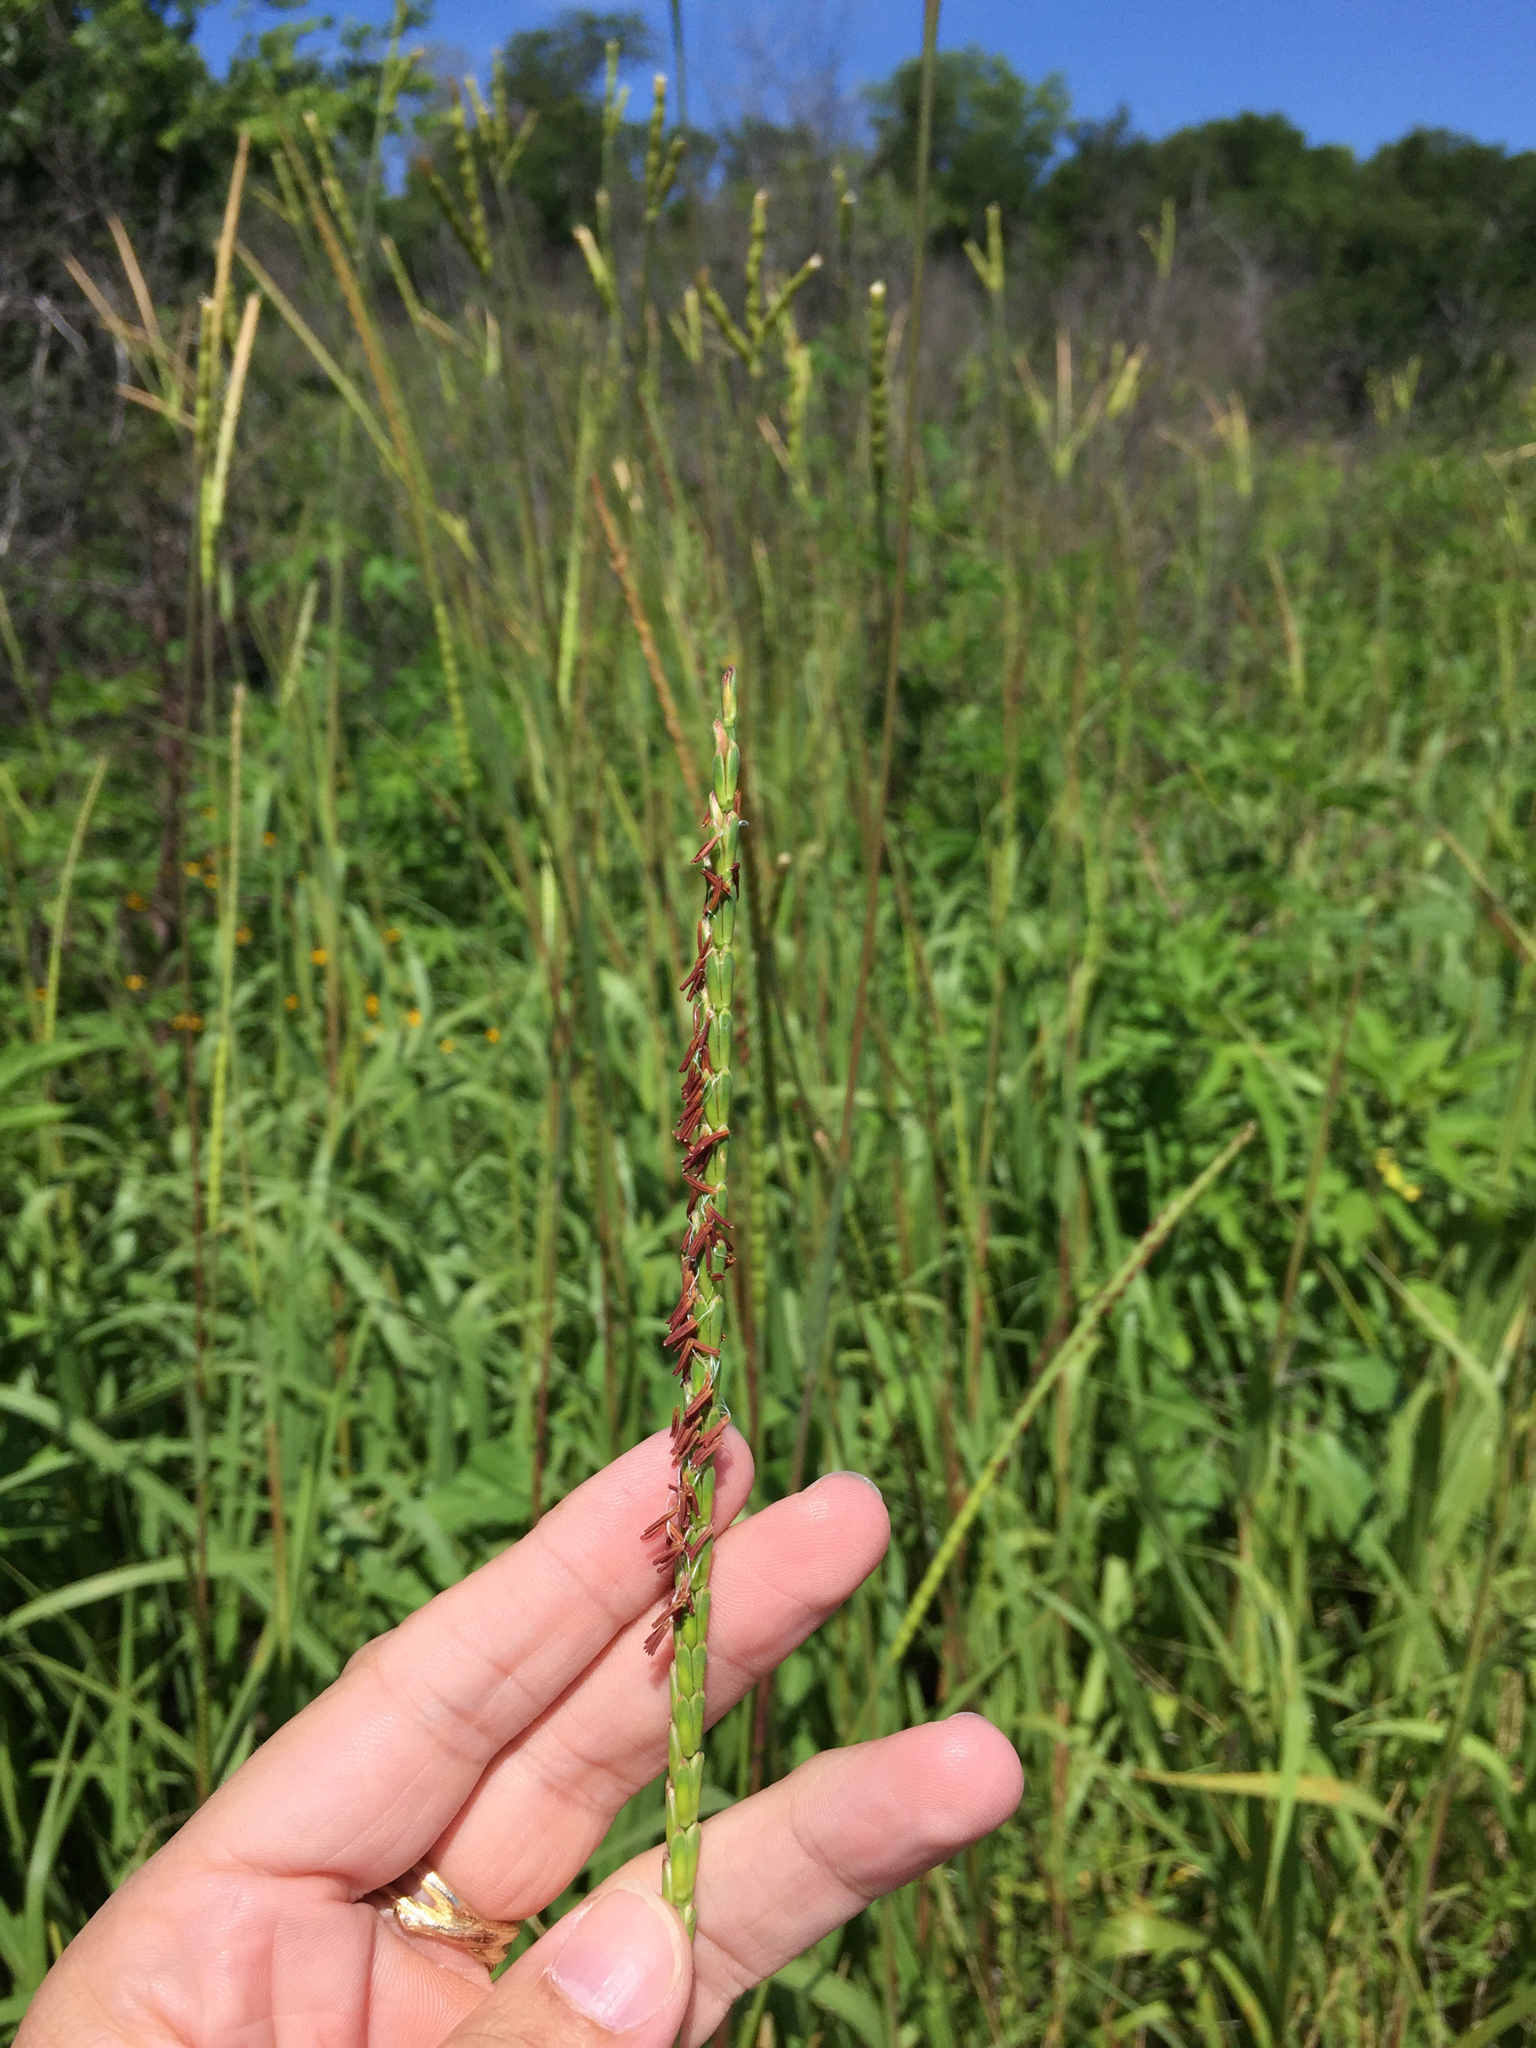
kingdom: Plantae
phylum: Tracheophyta
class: Liliopsida
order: Poales
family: Poaceae
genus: Tripsacum
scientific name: Tripsacum dactyloides
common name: Buffalo-grass
